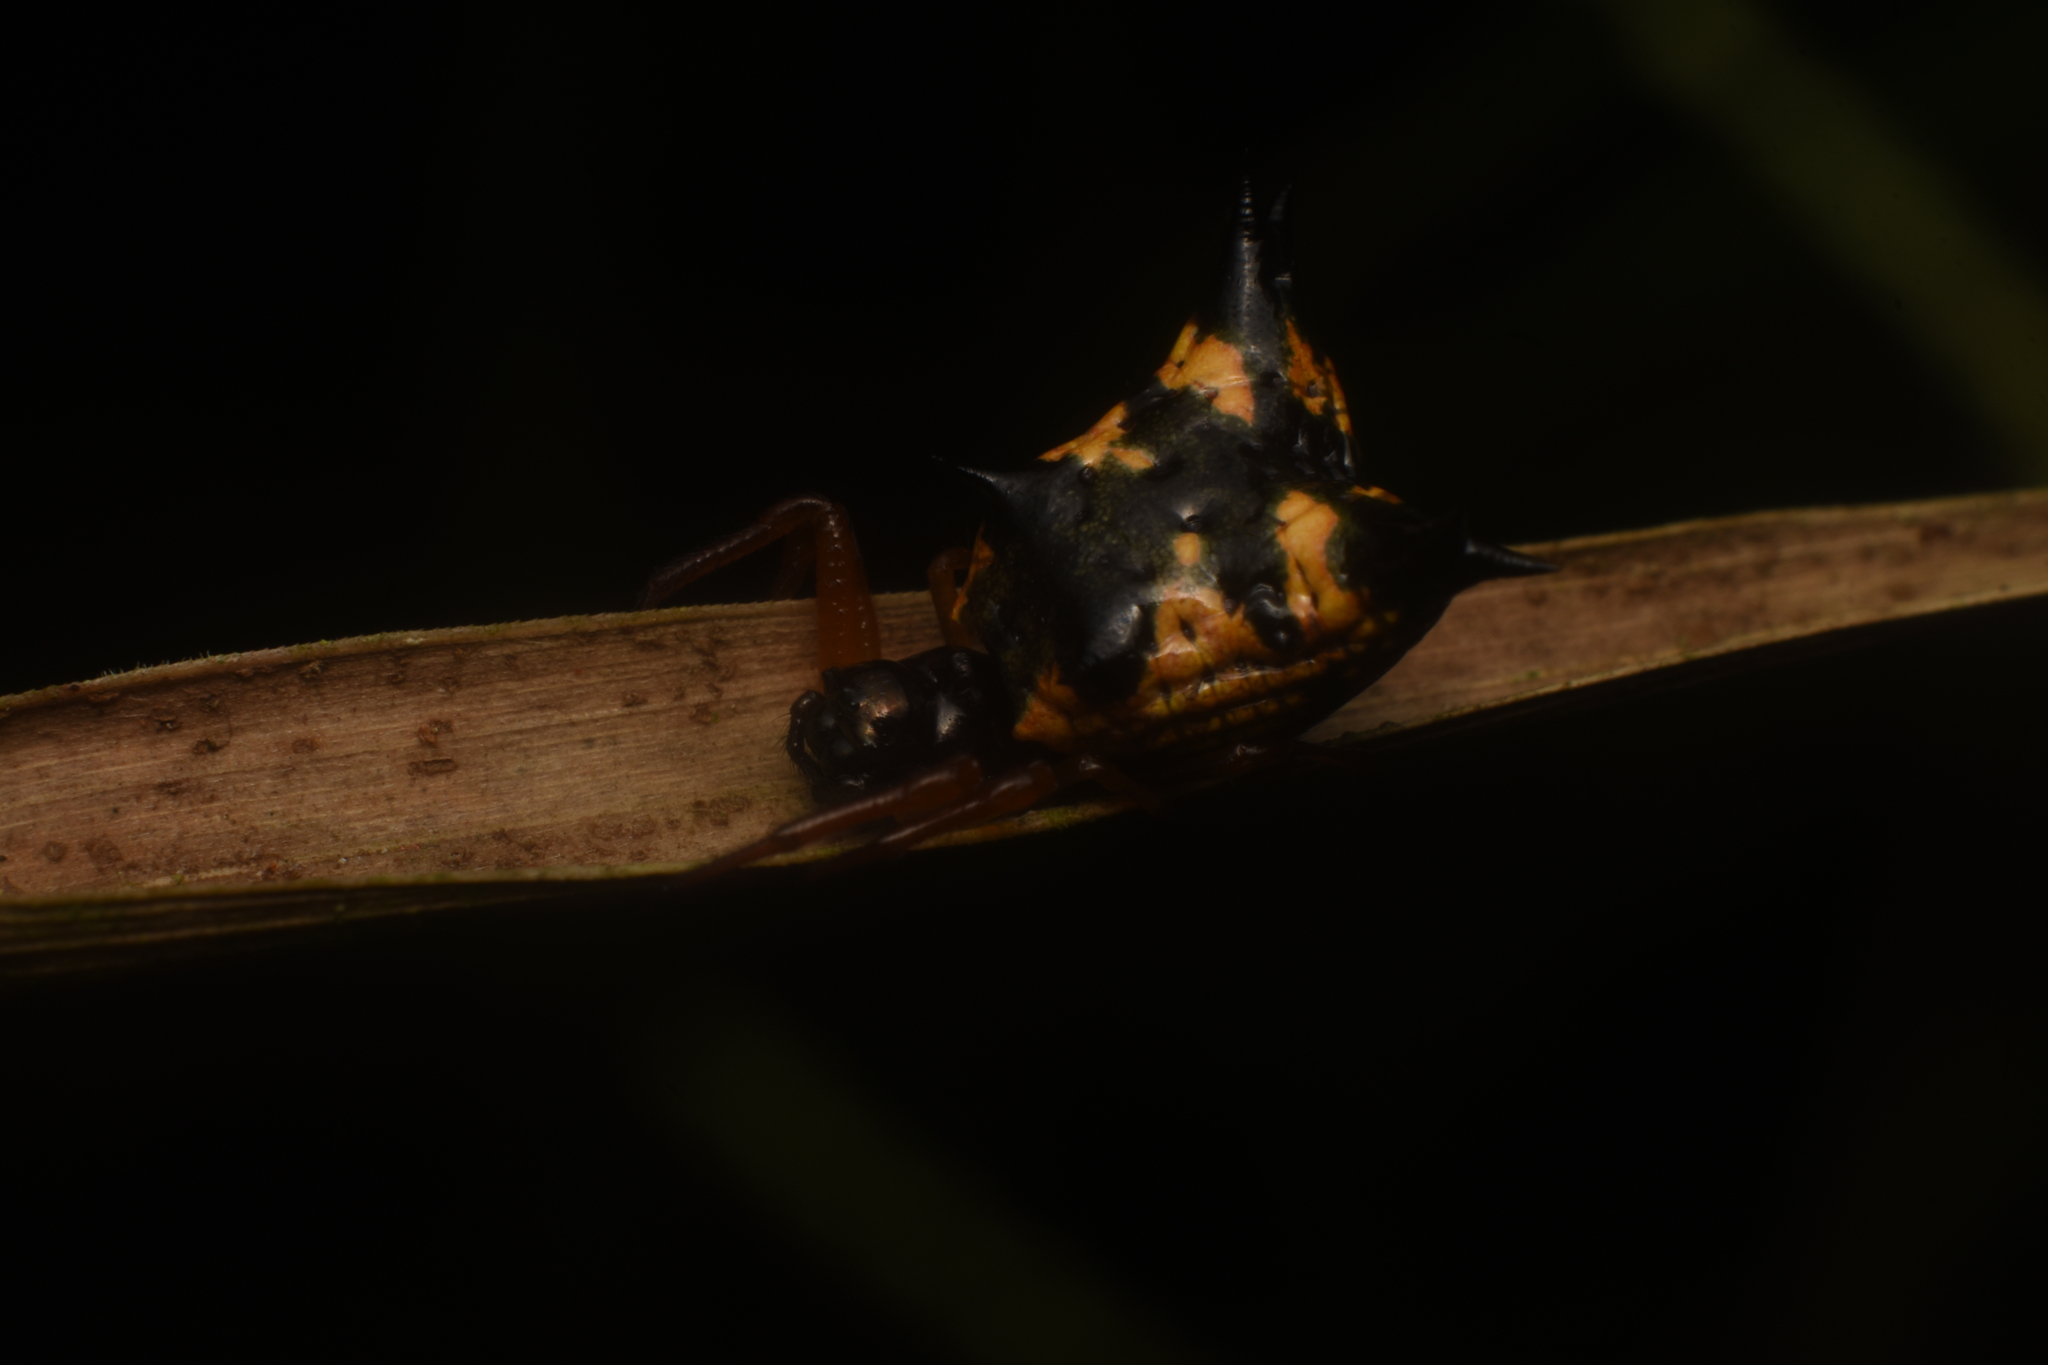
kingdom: Animalia
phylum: Arthropoda
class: Arachnida
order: Araneae
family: Araneidae
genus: Micrathena
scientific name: Micrathena crassa
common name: Orb weavers
